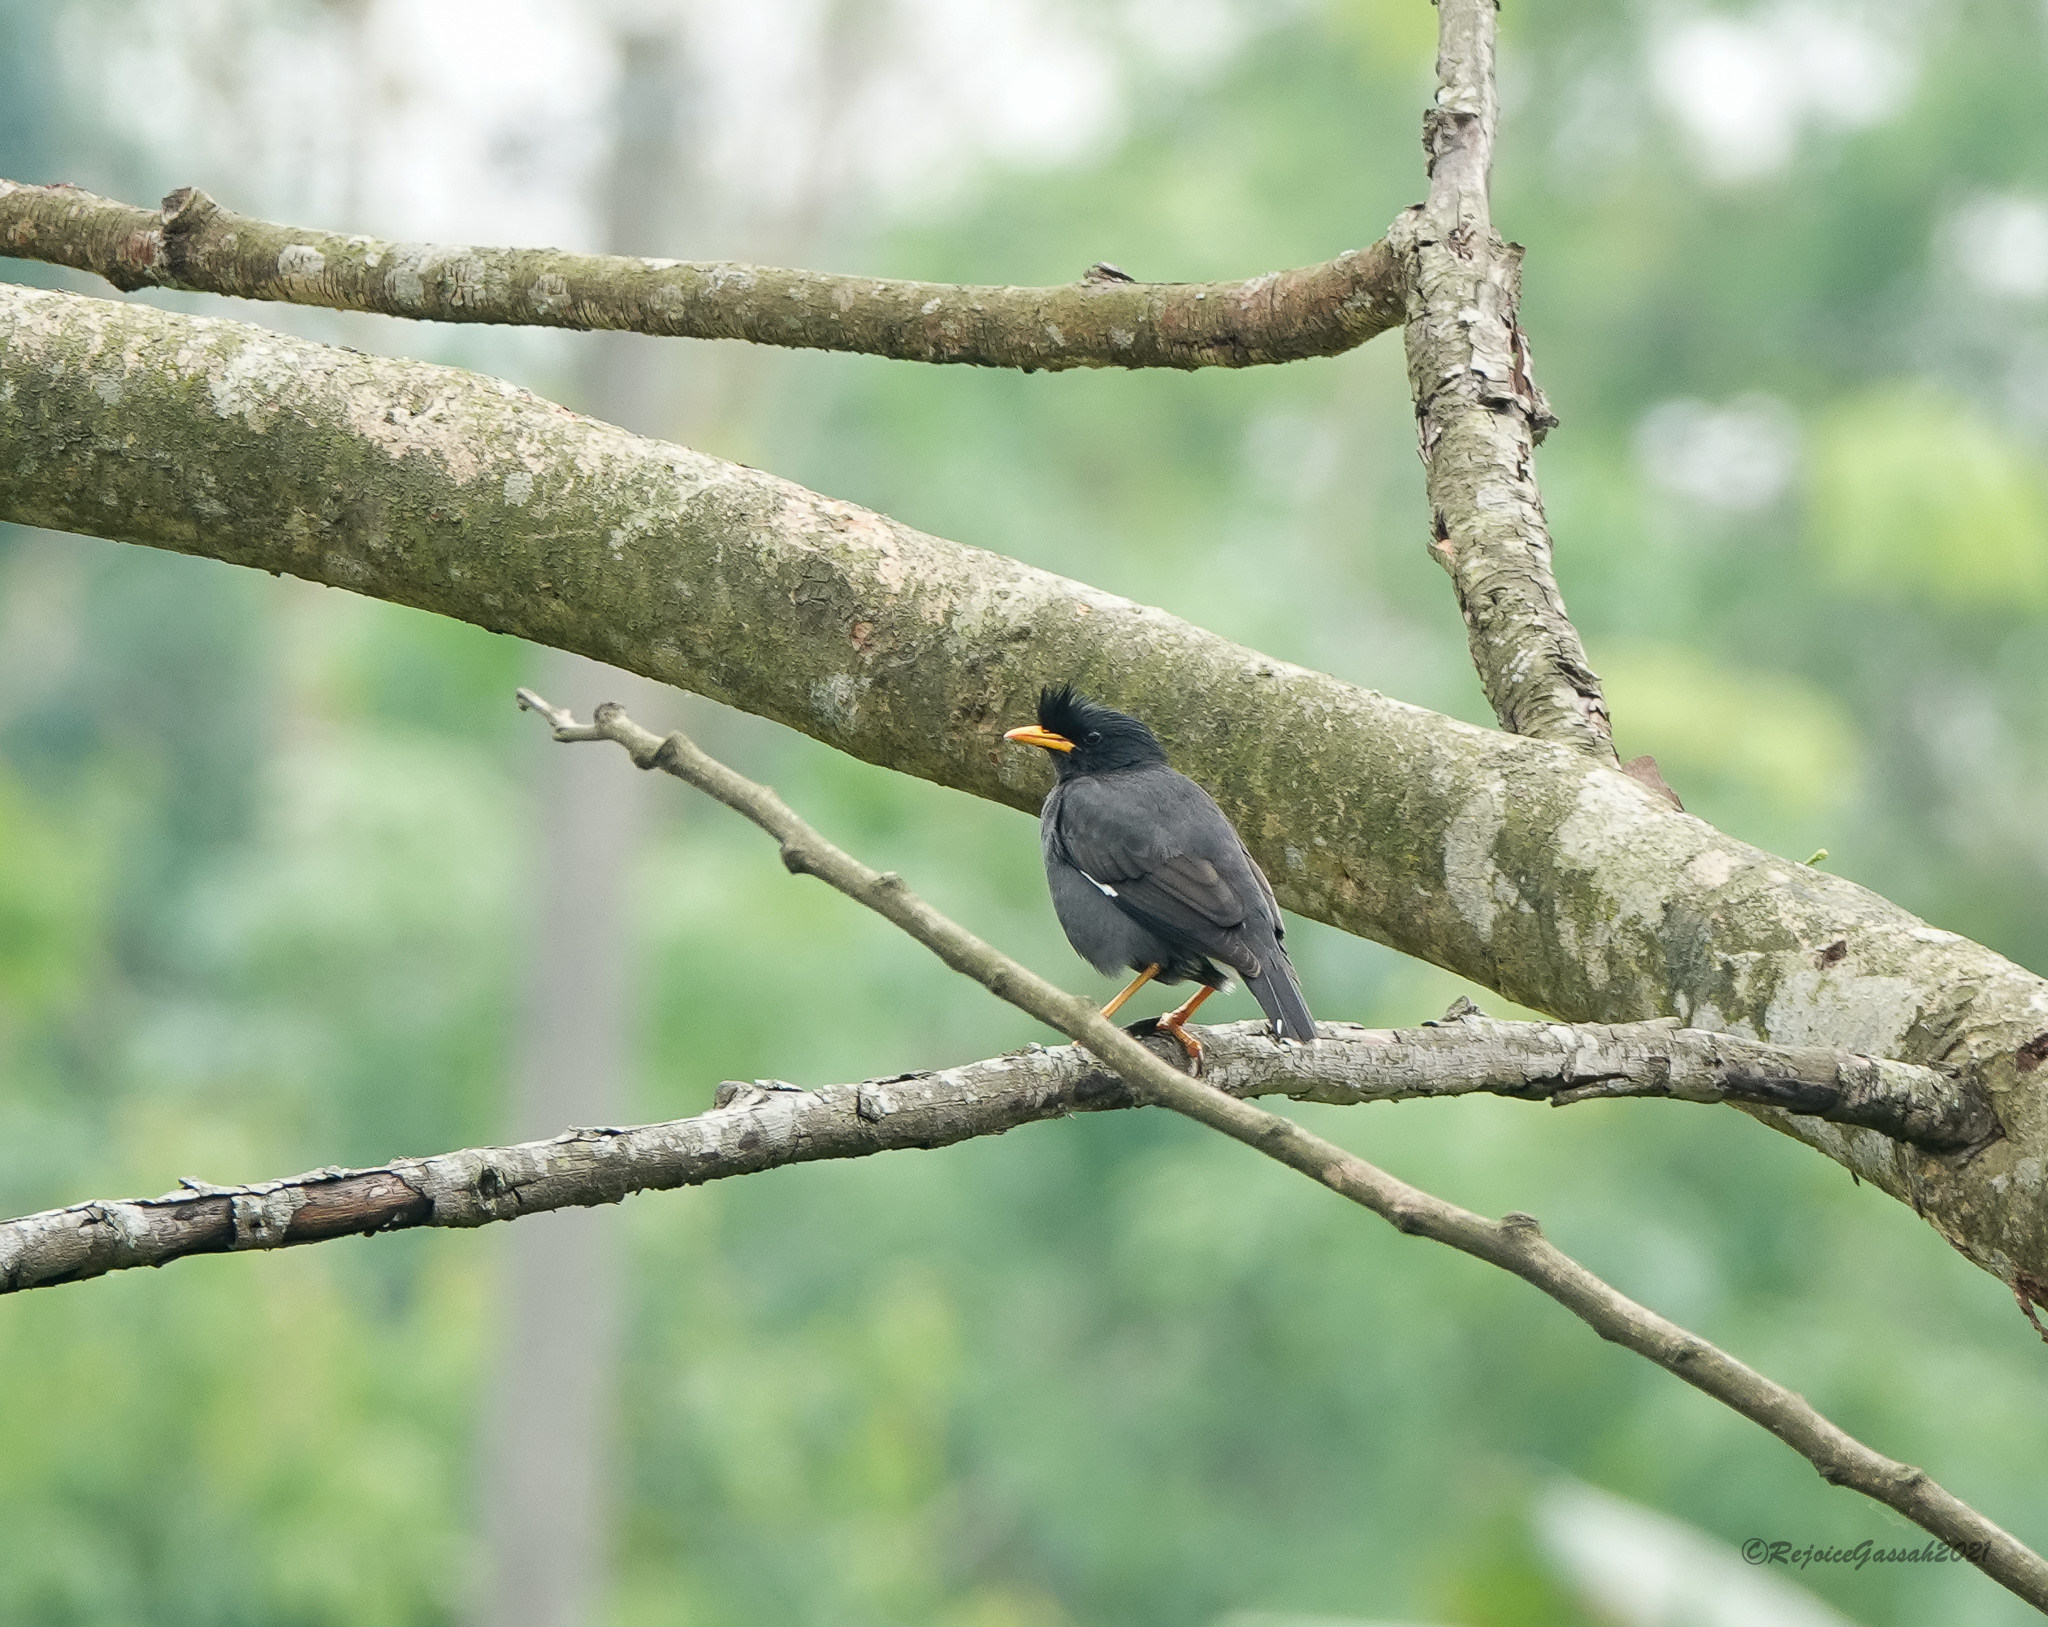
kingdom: Animalia
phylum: Chordata
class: Aves
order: Passeriformes
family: Sturnidae
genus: Acridotheres
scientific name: Acridotheres grandis
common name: Great myna
